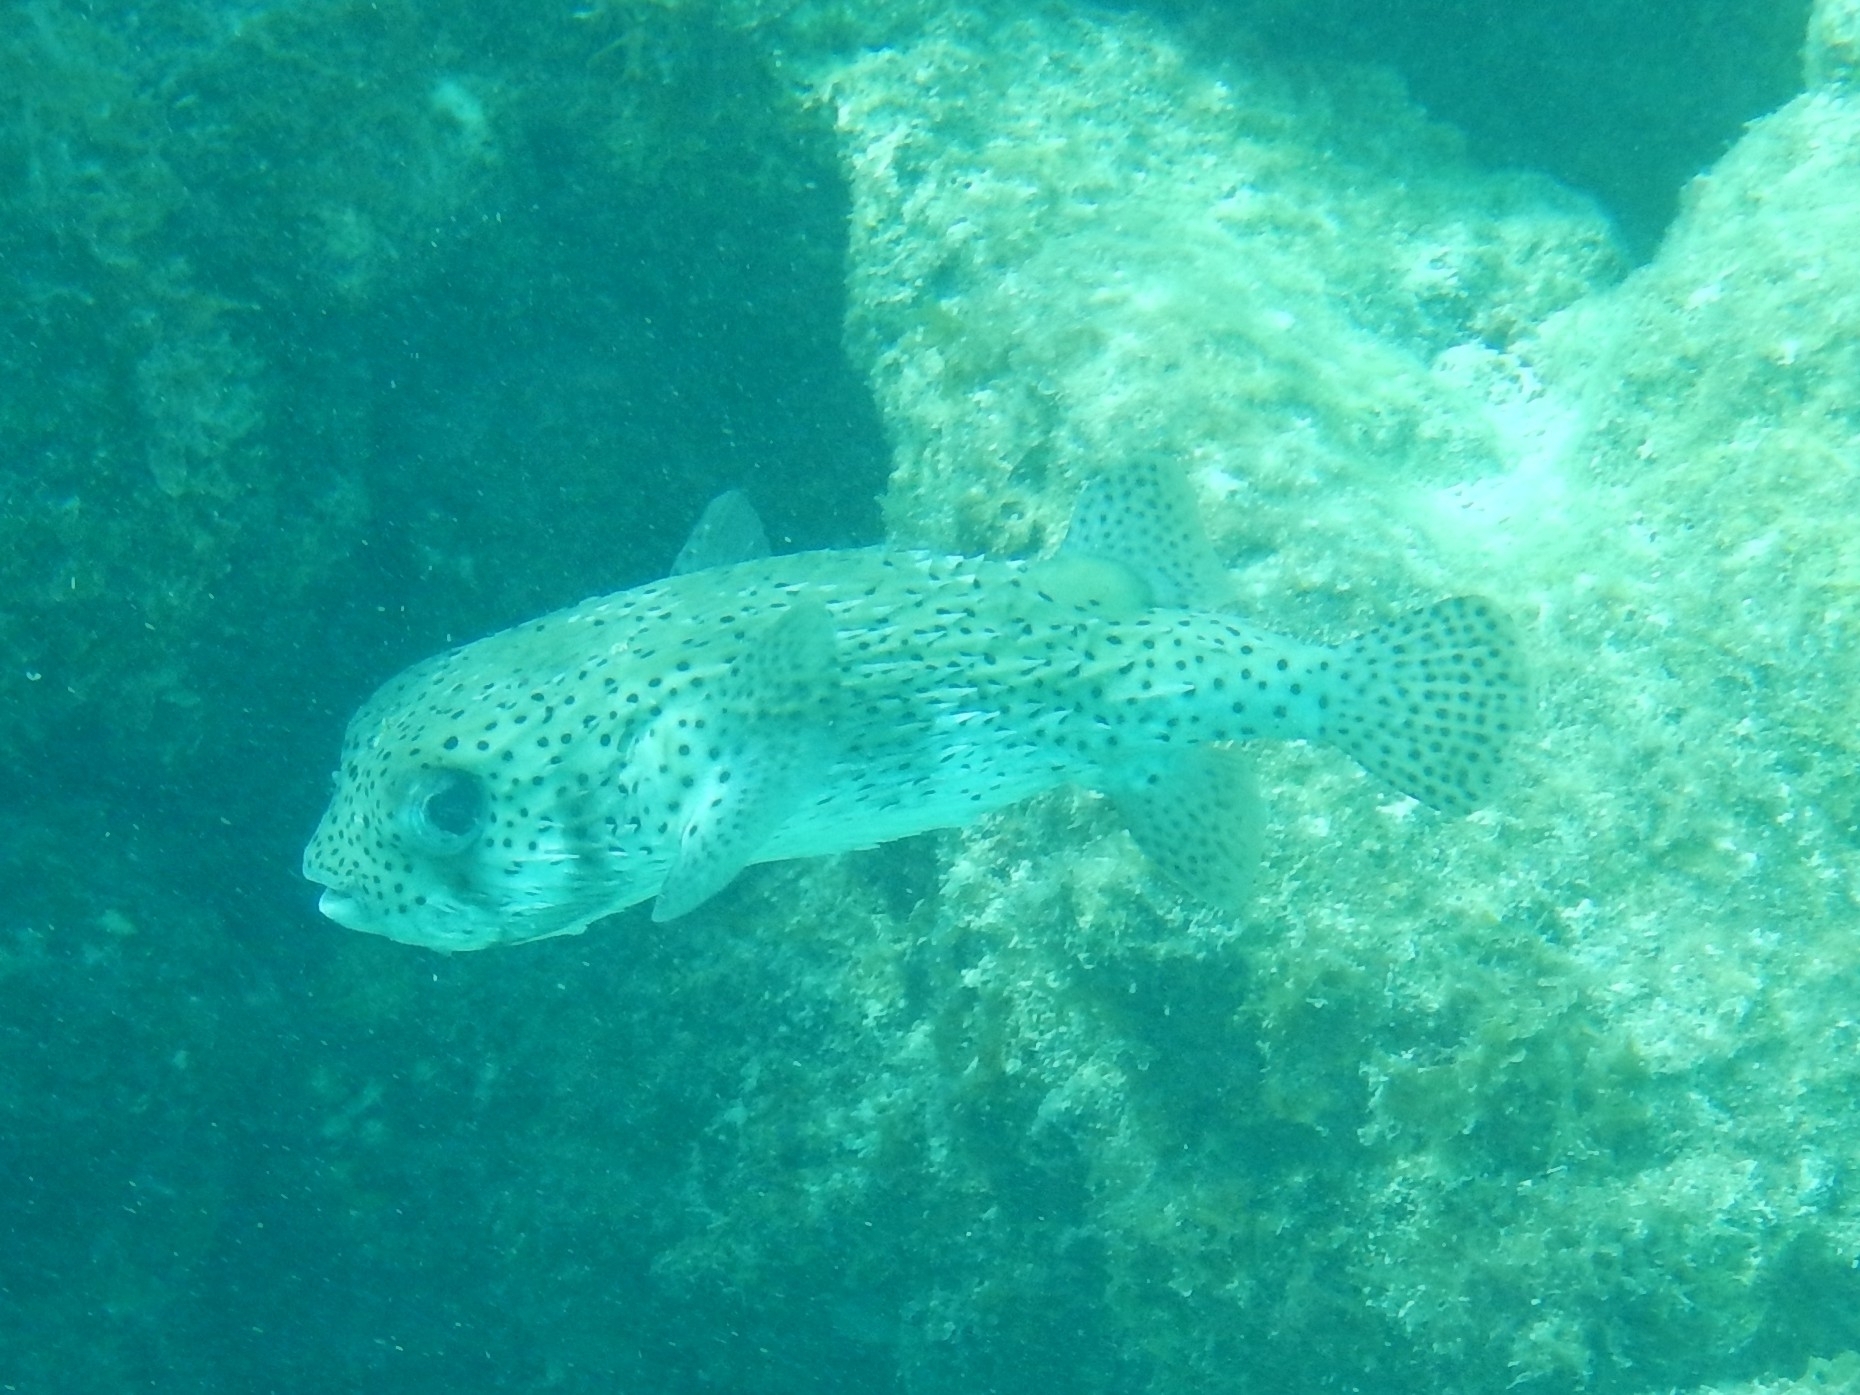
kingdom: Animalia
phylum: Chordata
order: Tetraodontiformes
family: Diodontidae
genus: Diodon
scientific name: Diodon hystrix
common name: Giant porcupinefish
